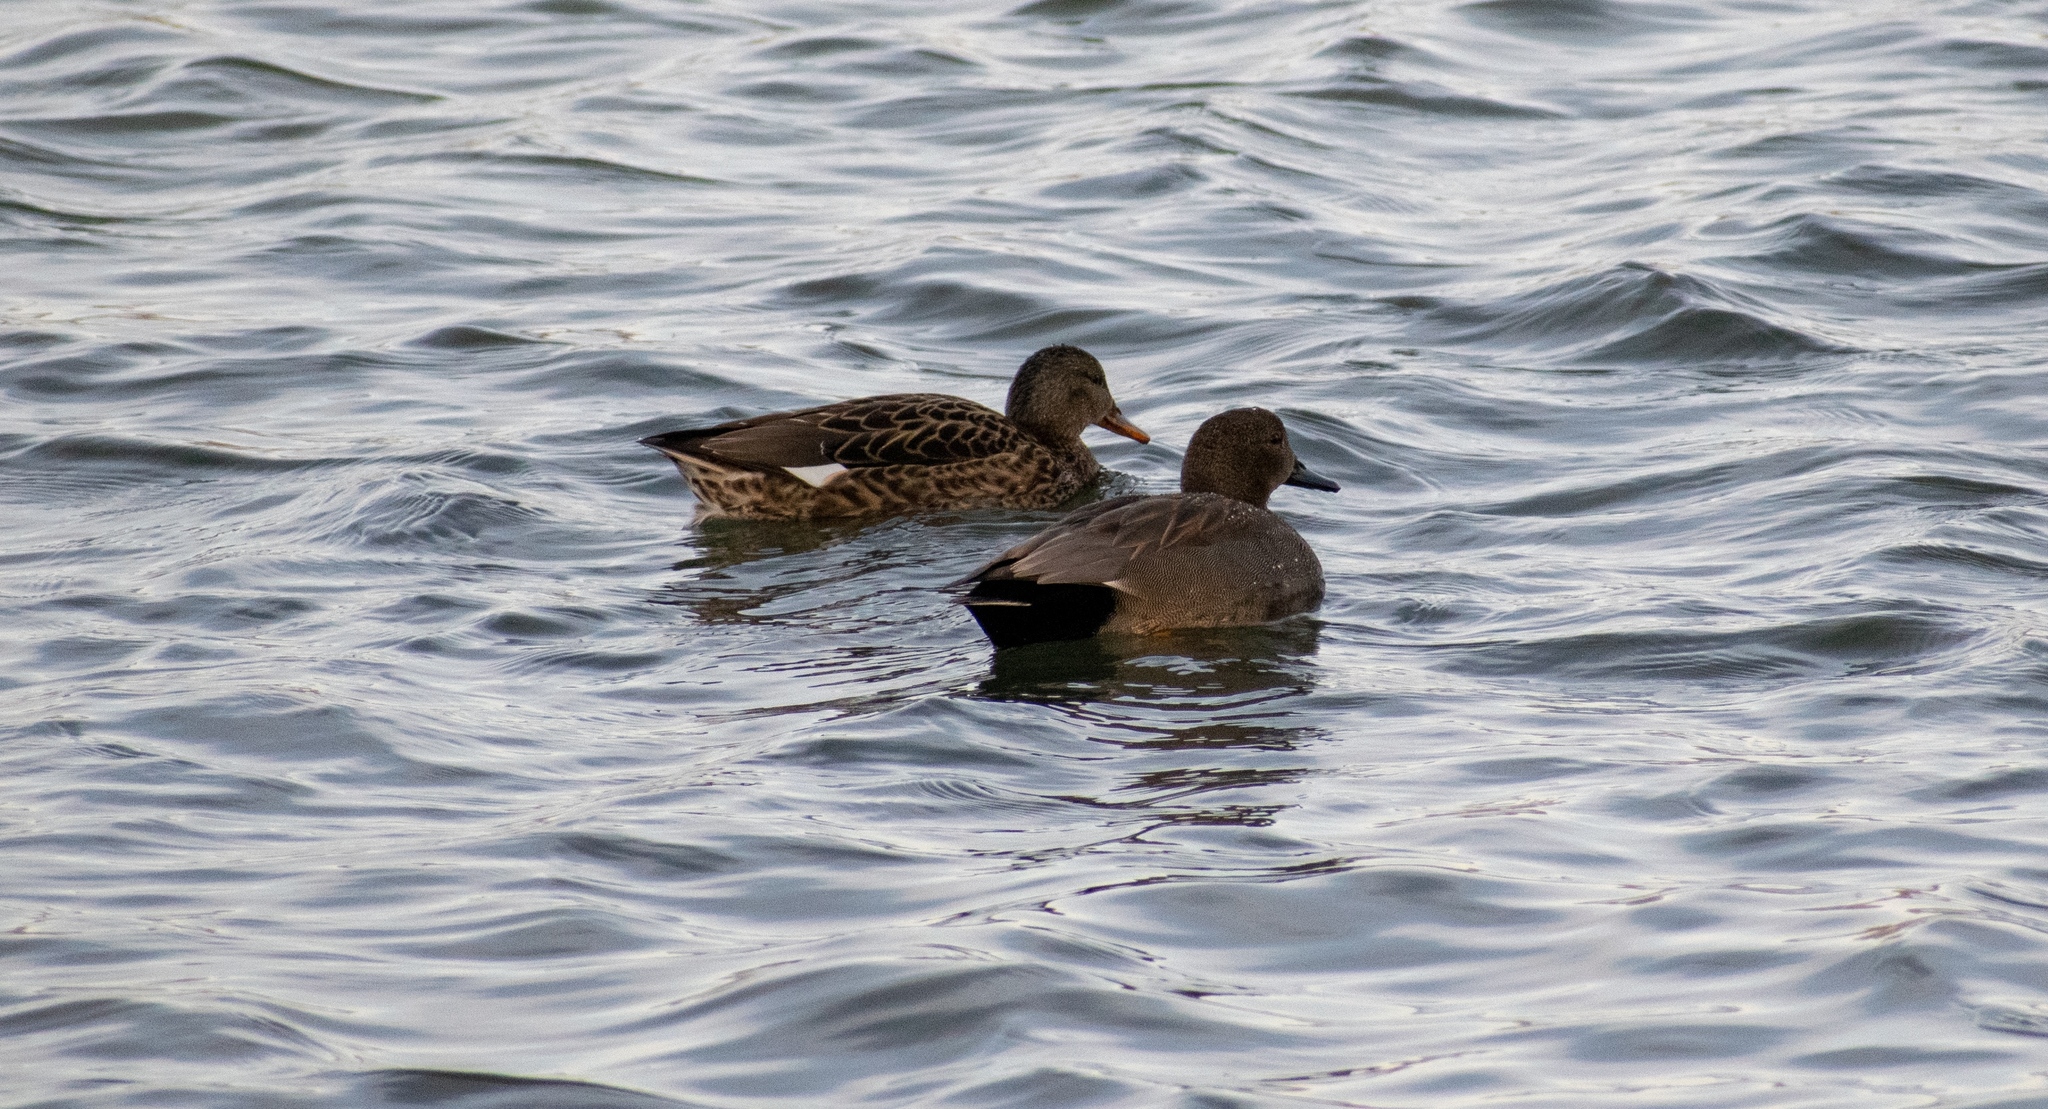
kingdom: Animalia
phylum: Chordata
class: Aves
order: Anseriformes
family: Anatidae
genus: Mareca
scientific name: Mareca strepera
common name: Gadwall
